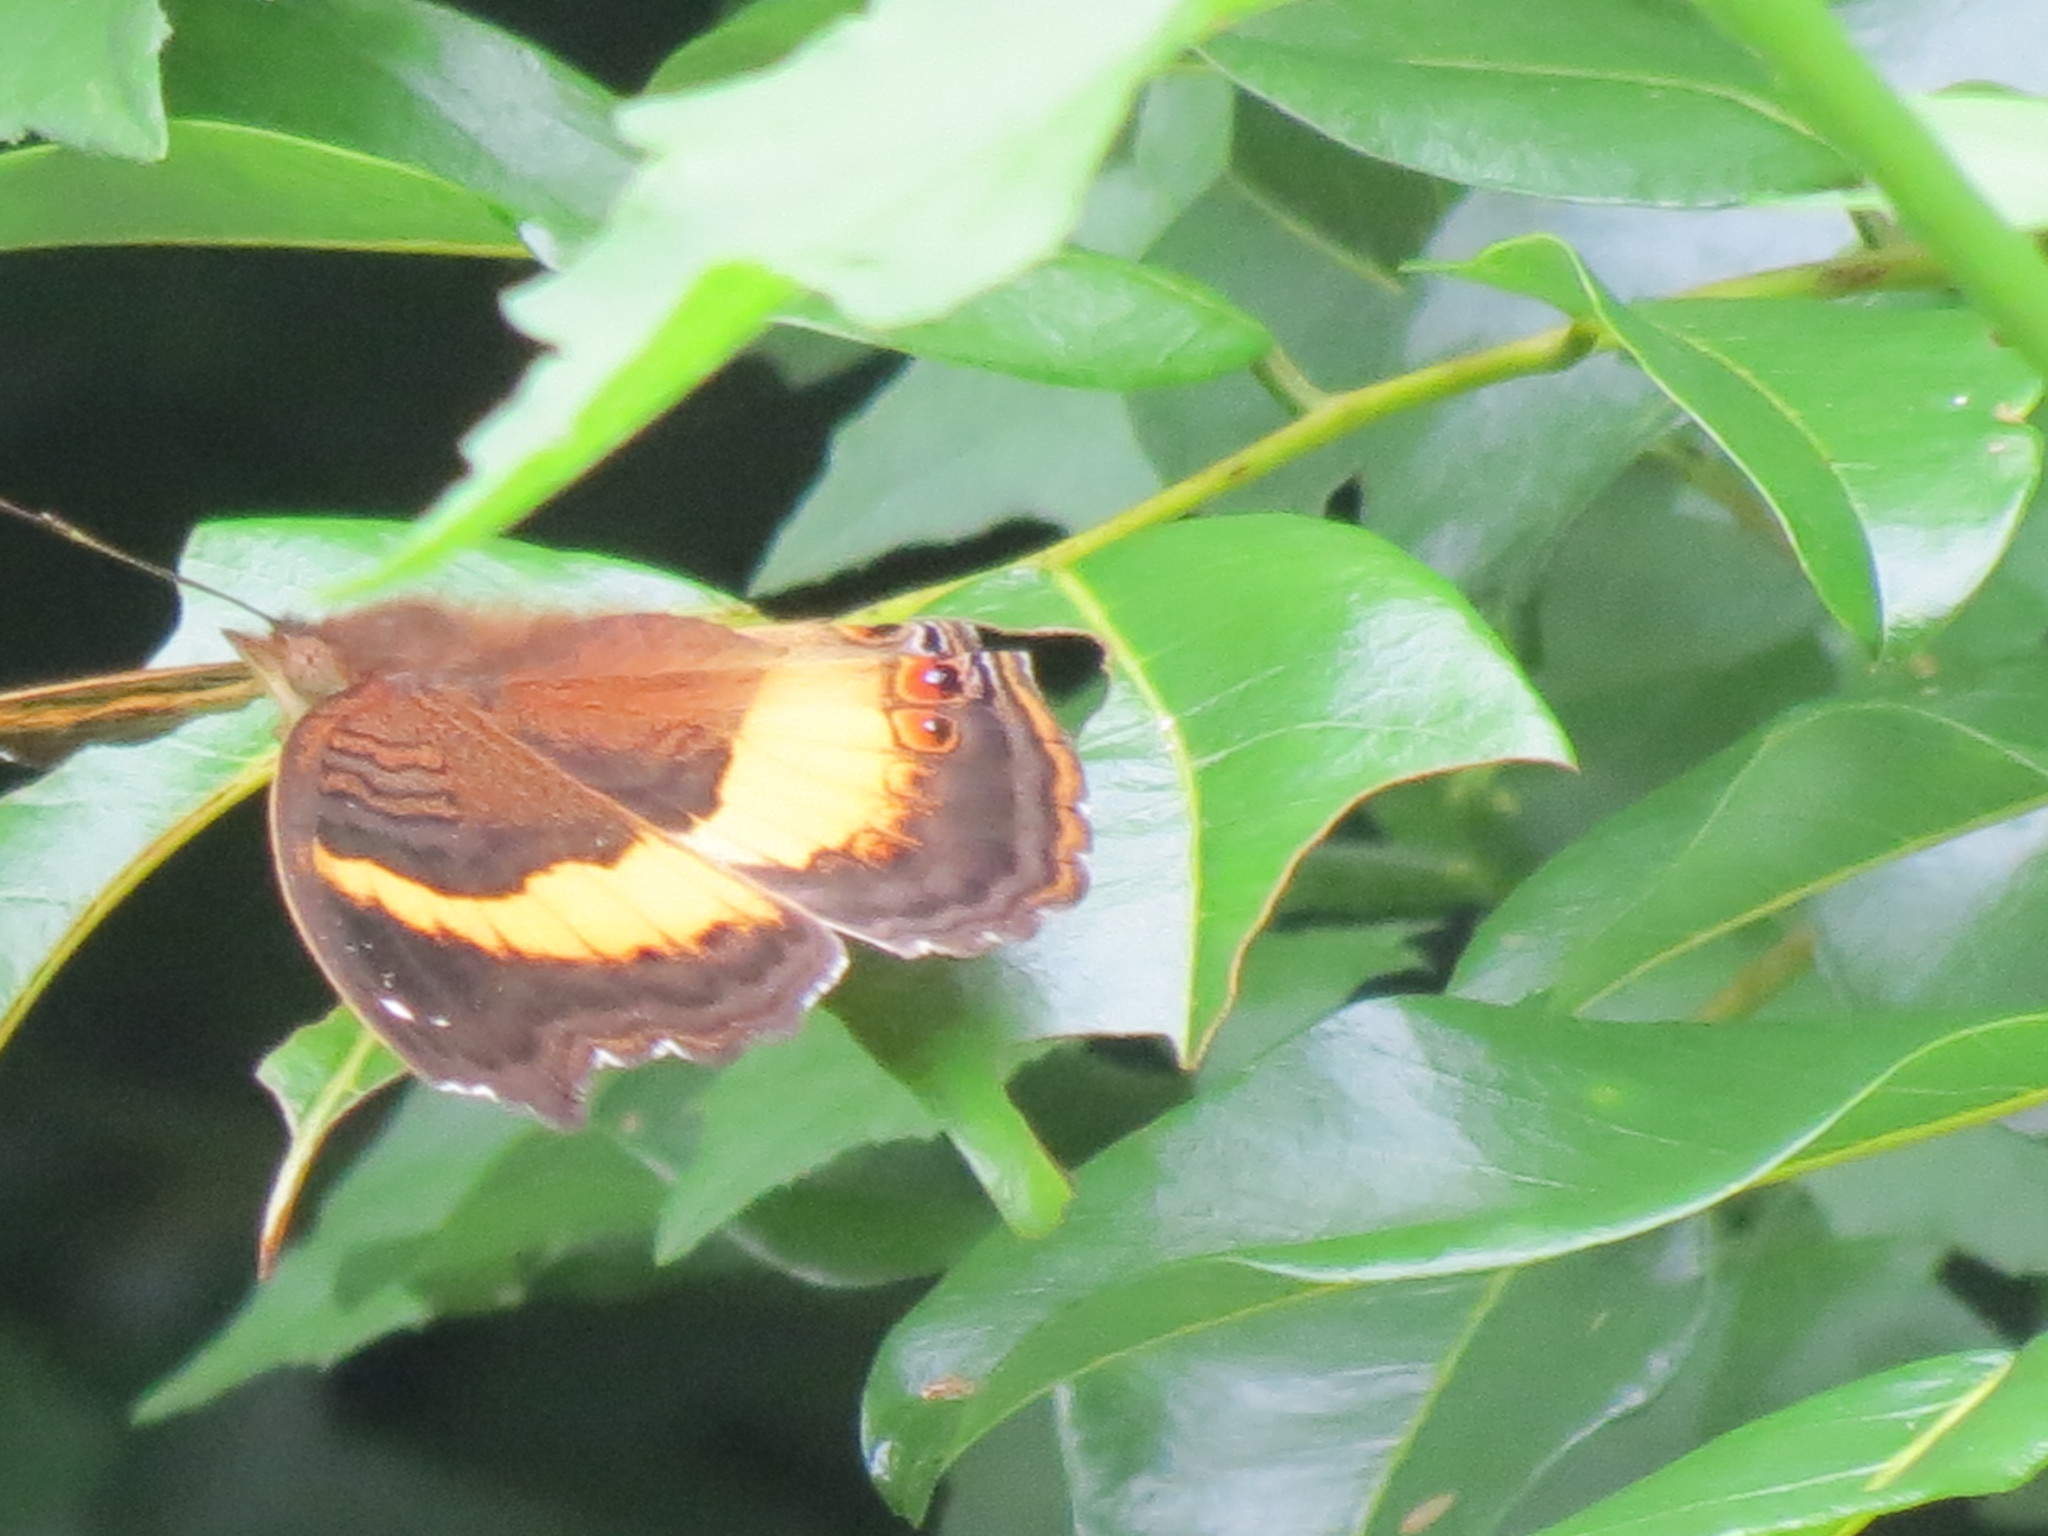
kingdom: Animalia
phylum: Arthropoda
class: Insecta
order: Lepidoptera
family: Nymphalidae
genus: Junonia
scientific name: Junonia terea
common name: Soldier pansy
